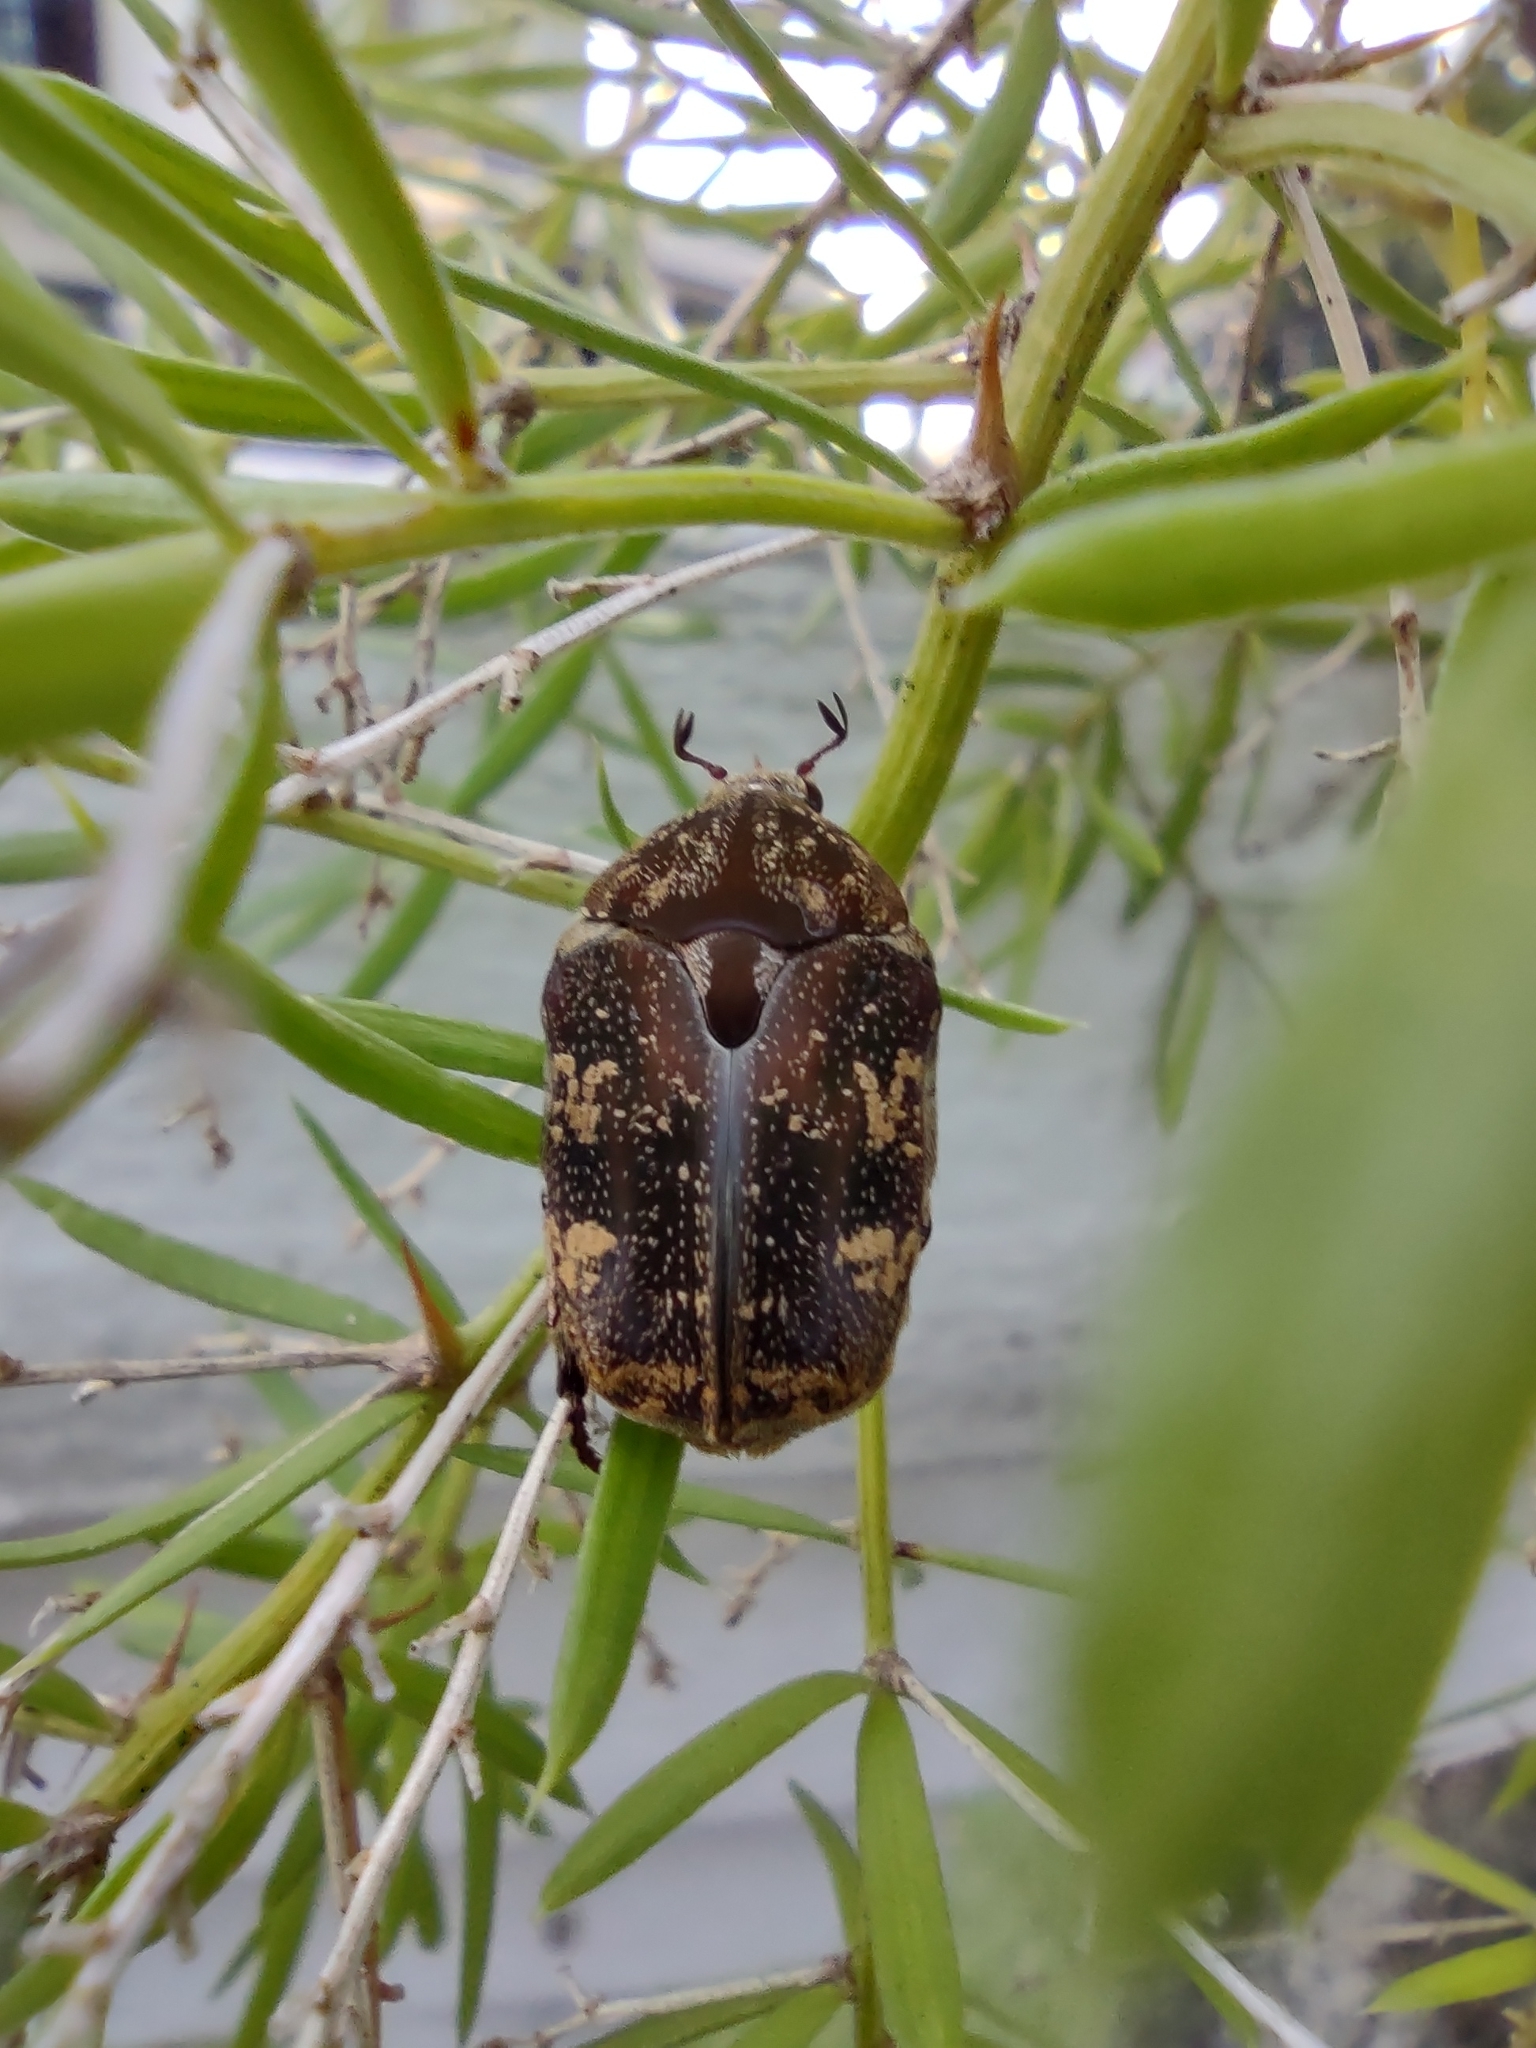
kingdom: Animalia
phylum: Arthropoda
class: Insecta
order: Coleoptera
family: Scarabaeidae
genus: Protaetia
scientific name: Protaetia fusca
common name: Mango flower beetle
